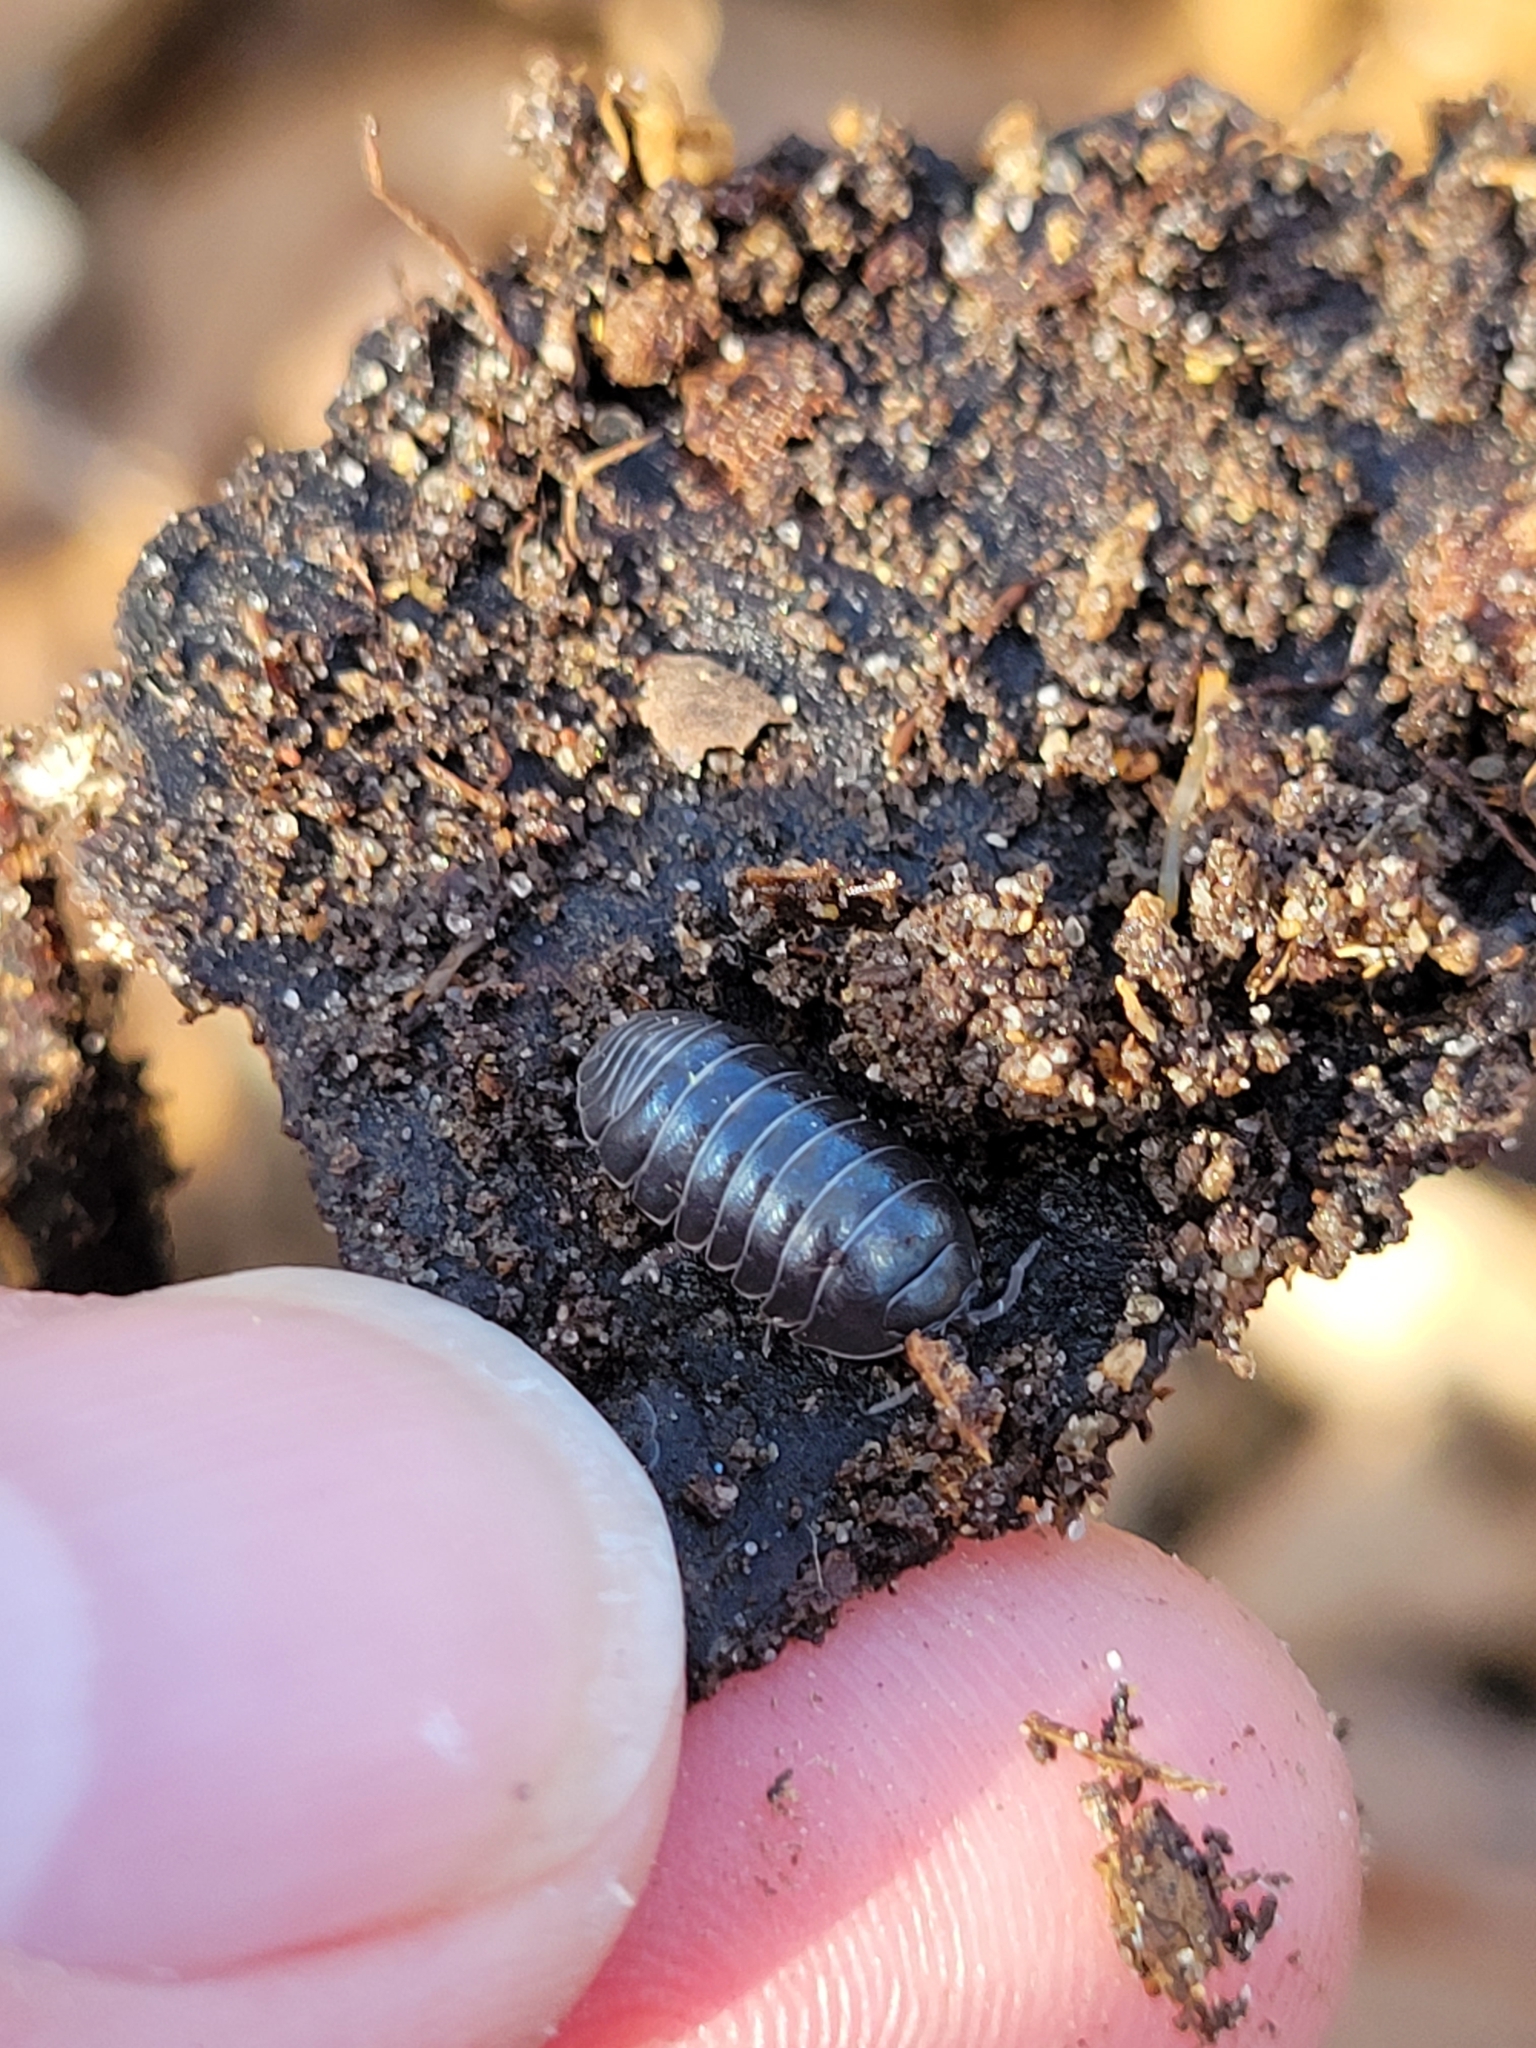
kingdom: Animalia
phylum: Arthropoda
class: Malacostraca
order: Isopoda
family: Armadillidiidae
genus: Armadillidium
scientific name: Armadillidium vulgare
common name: Common pill woodlouse
